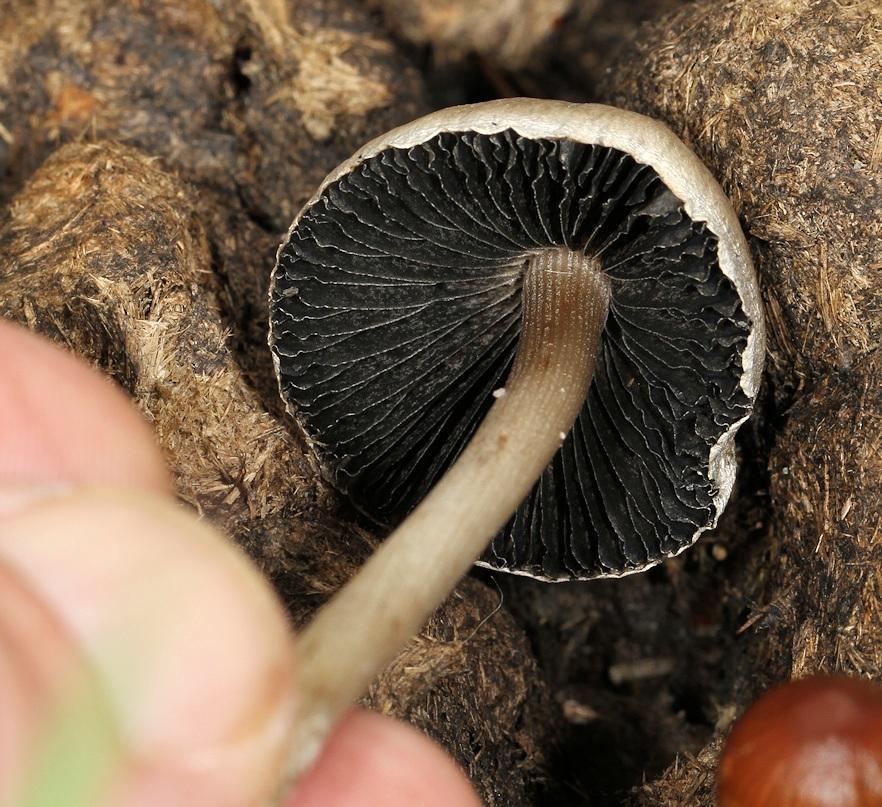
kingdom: Fungi
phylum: Basidiomycota
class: Agaricomycetes
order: Agaricales
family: Bolbitiaceae
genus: Panaeolus
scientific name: Panaeolus papilionaceus
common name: Petticoat mottlegill
